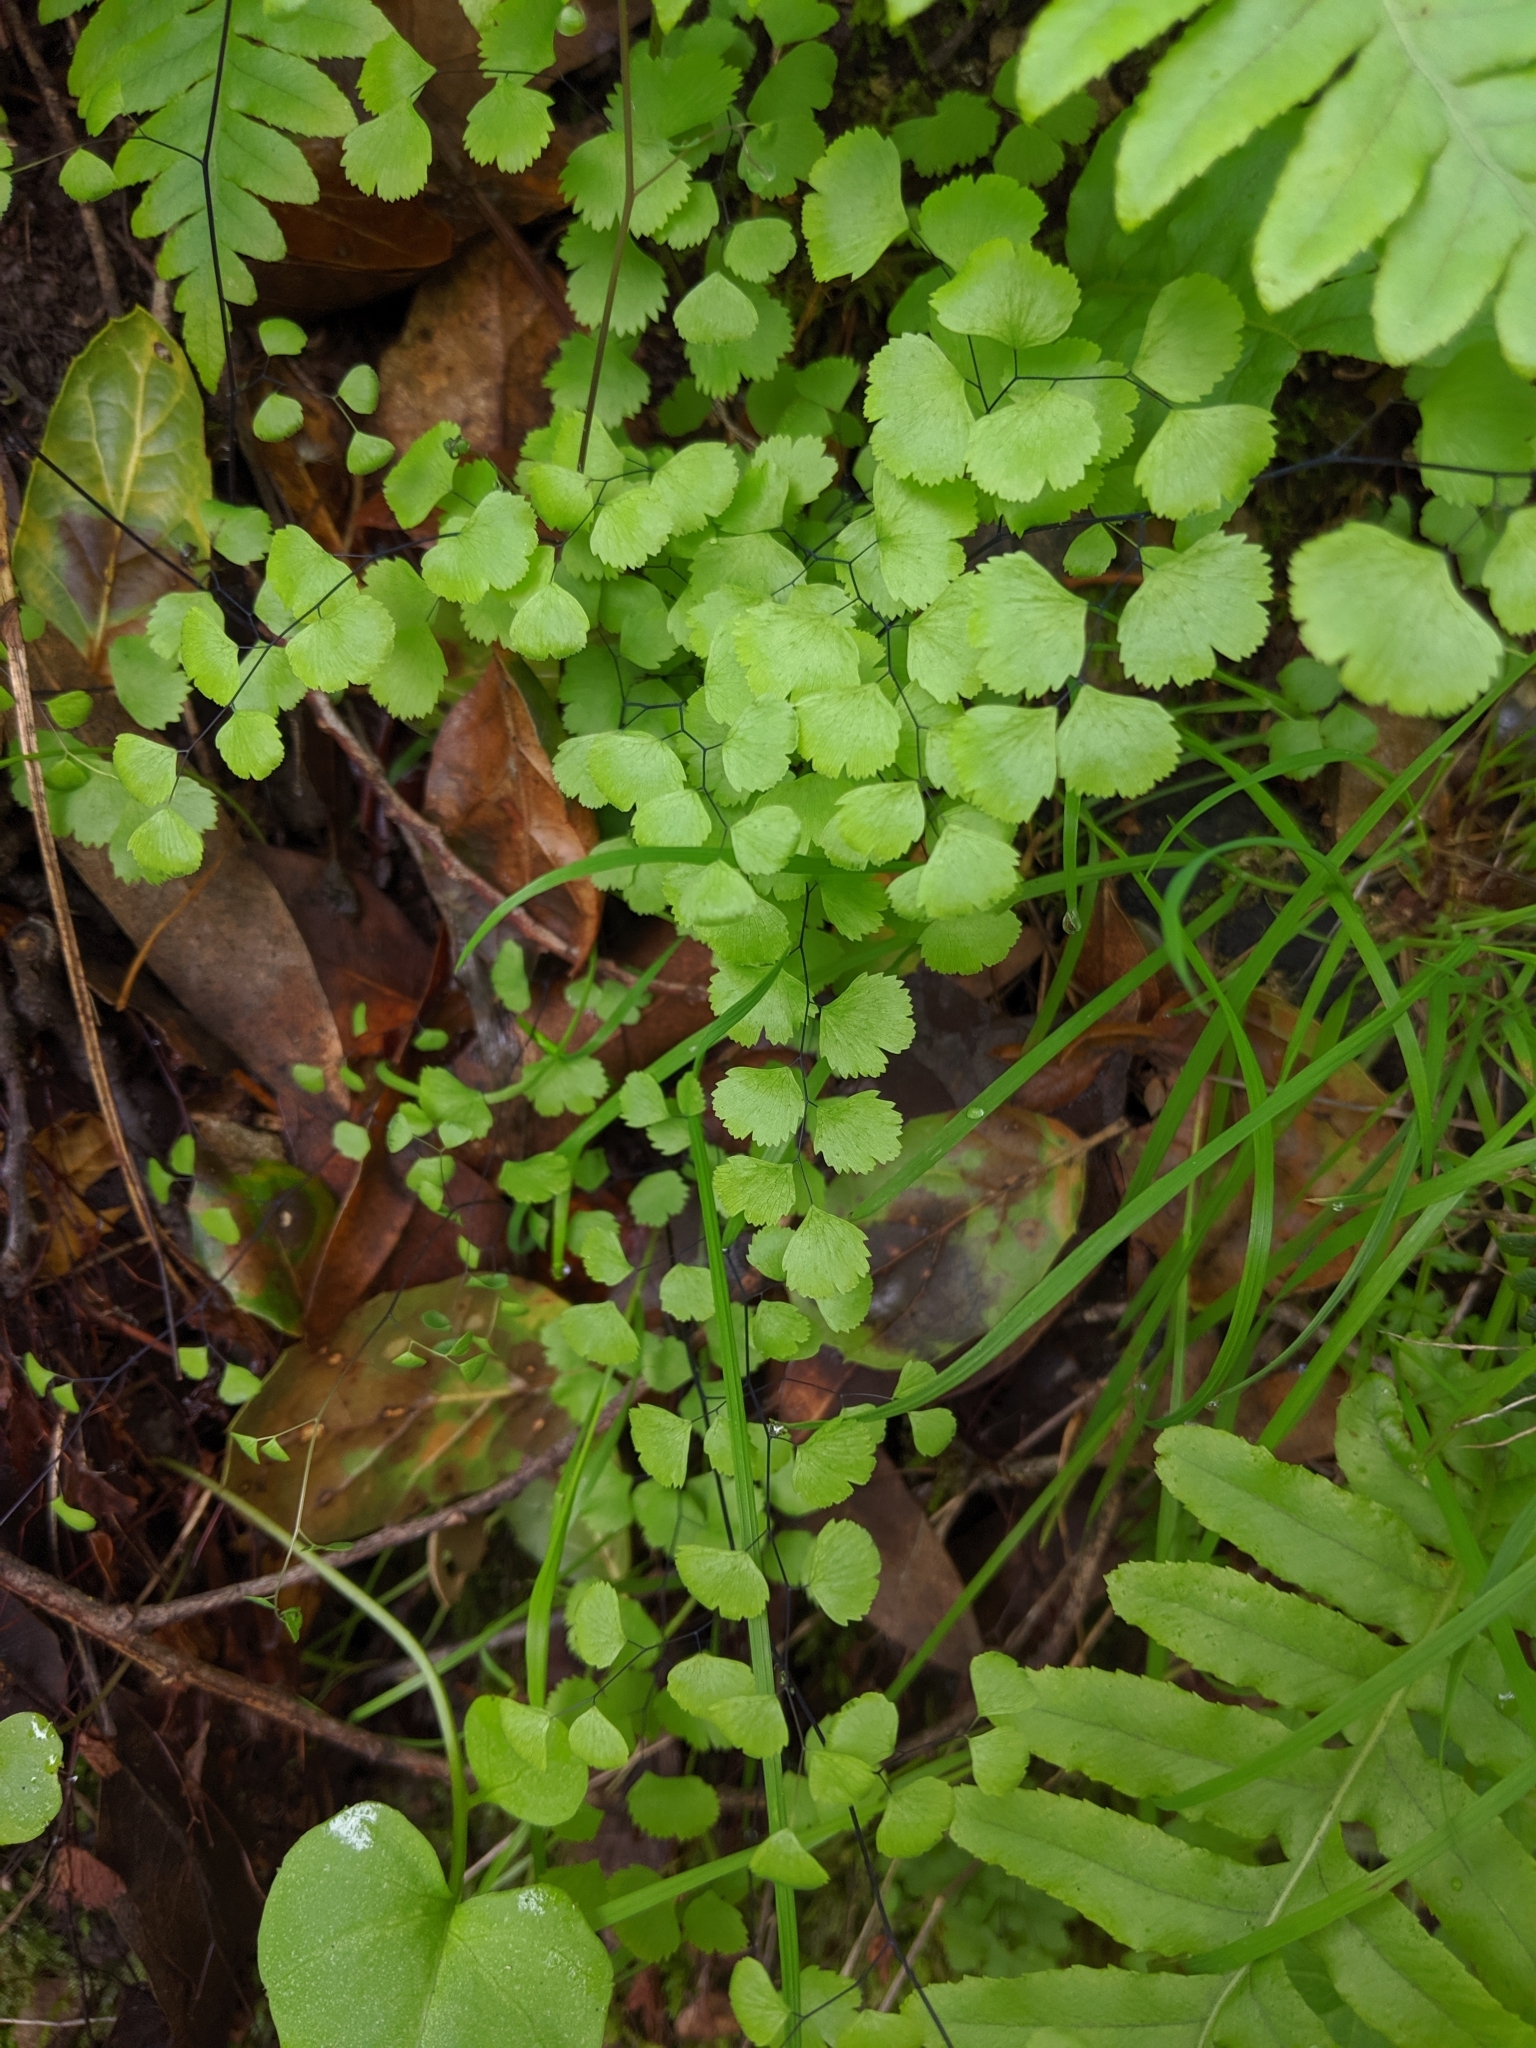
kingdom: Plantae
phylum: Tracheophyta
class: Polypodiopsida
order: Polypodiales
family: Pteridaceae
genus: Adiantum
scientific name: Adiantum jordanii
